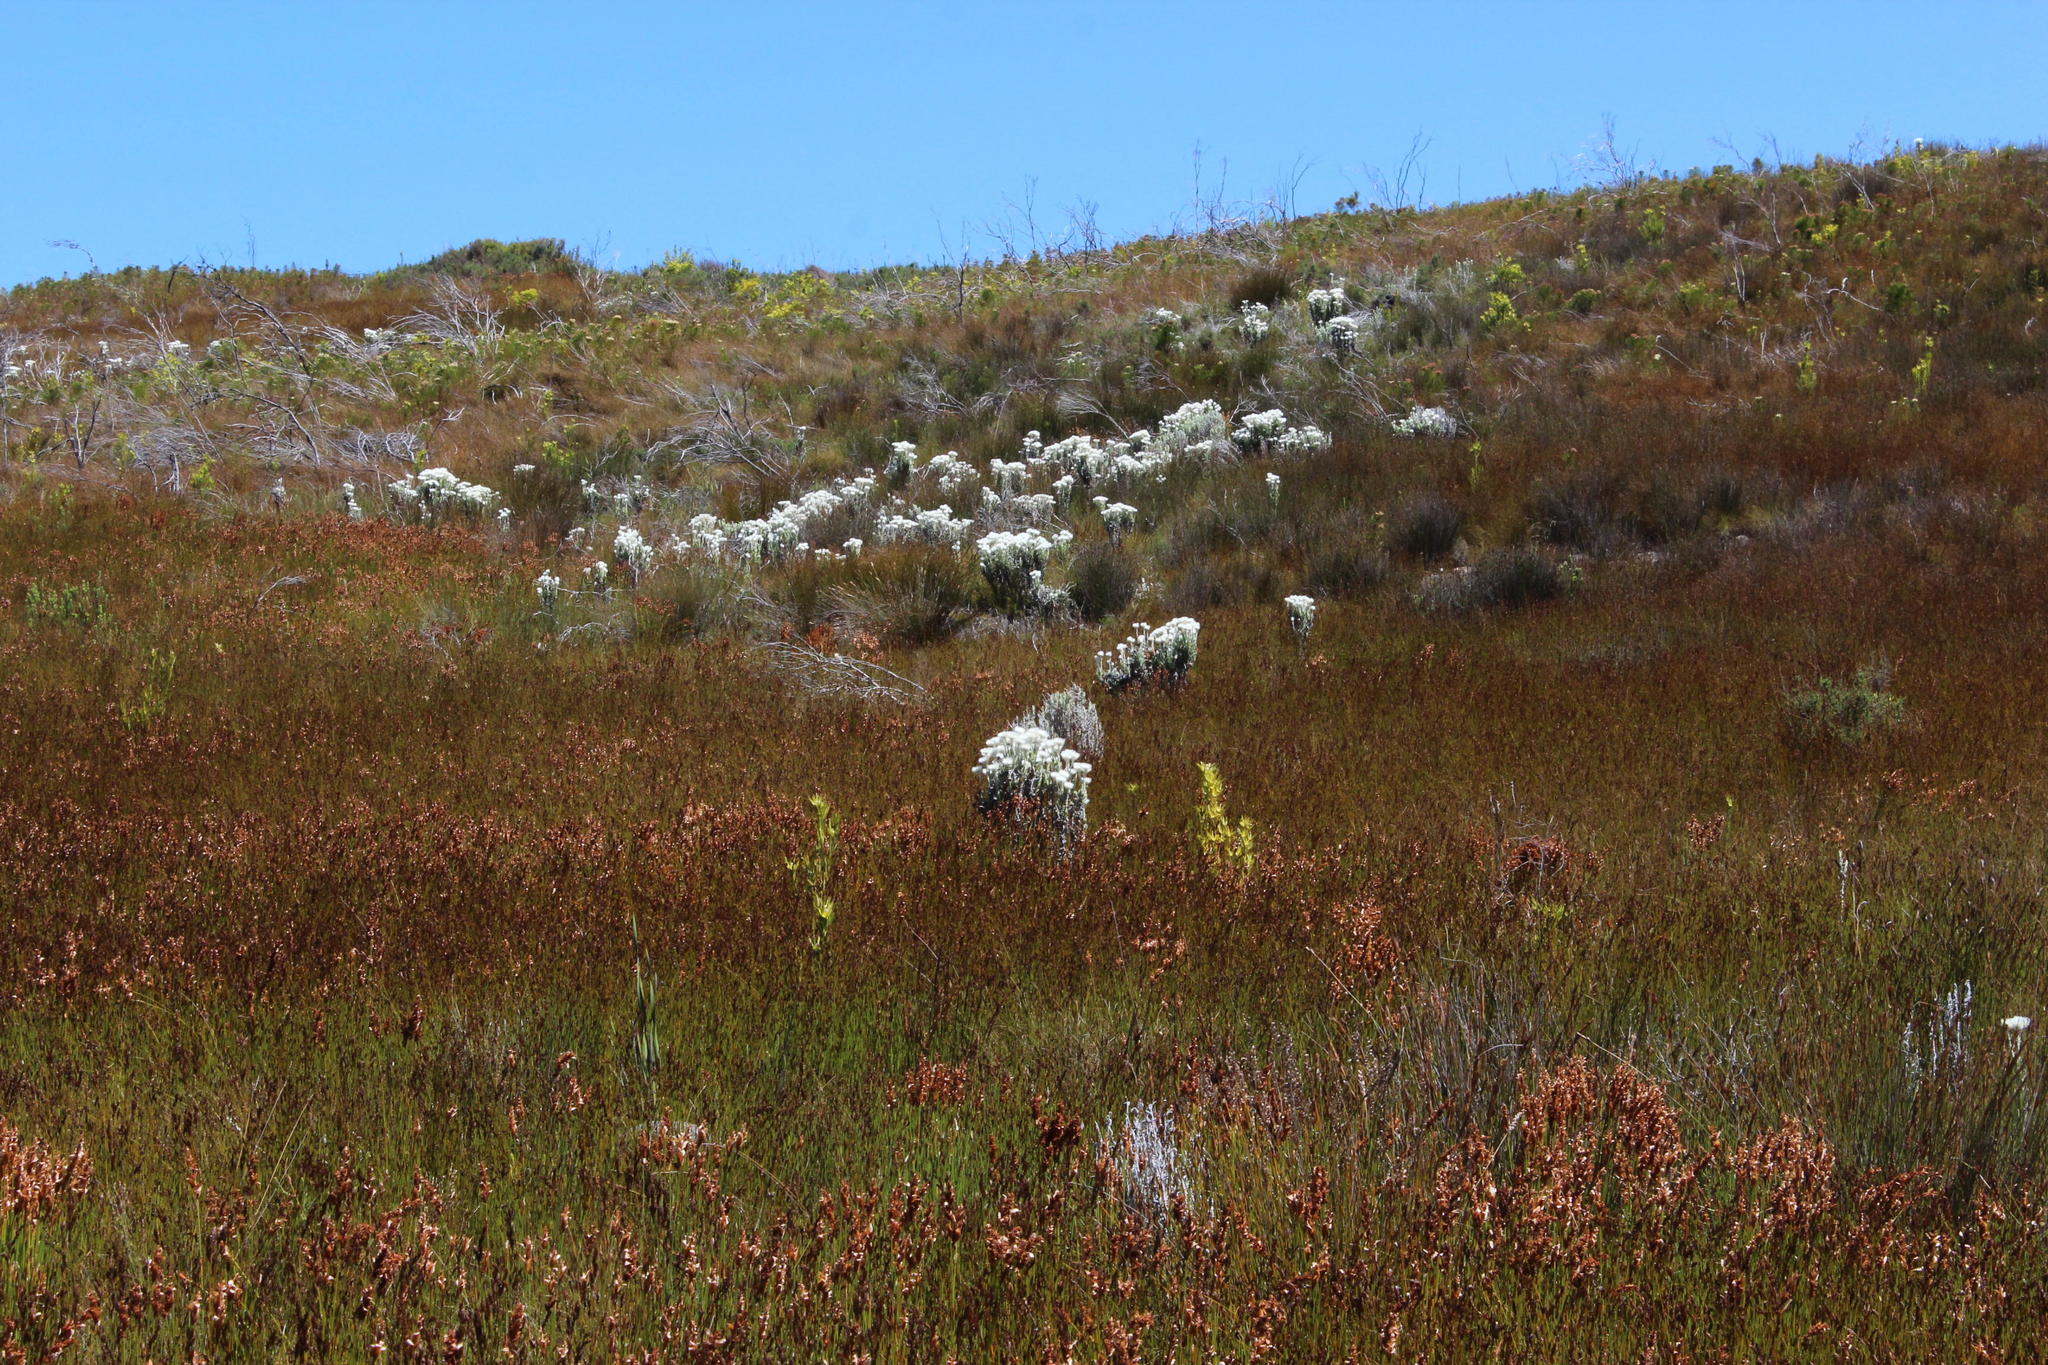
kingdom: Plantae
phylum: Tracheophyta
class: Magnoliopsida
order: Asterales
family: Asteraceae
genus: Syncarpha
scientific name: Syncarpha vestita
